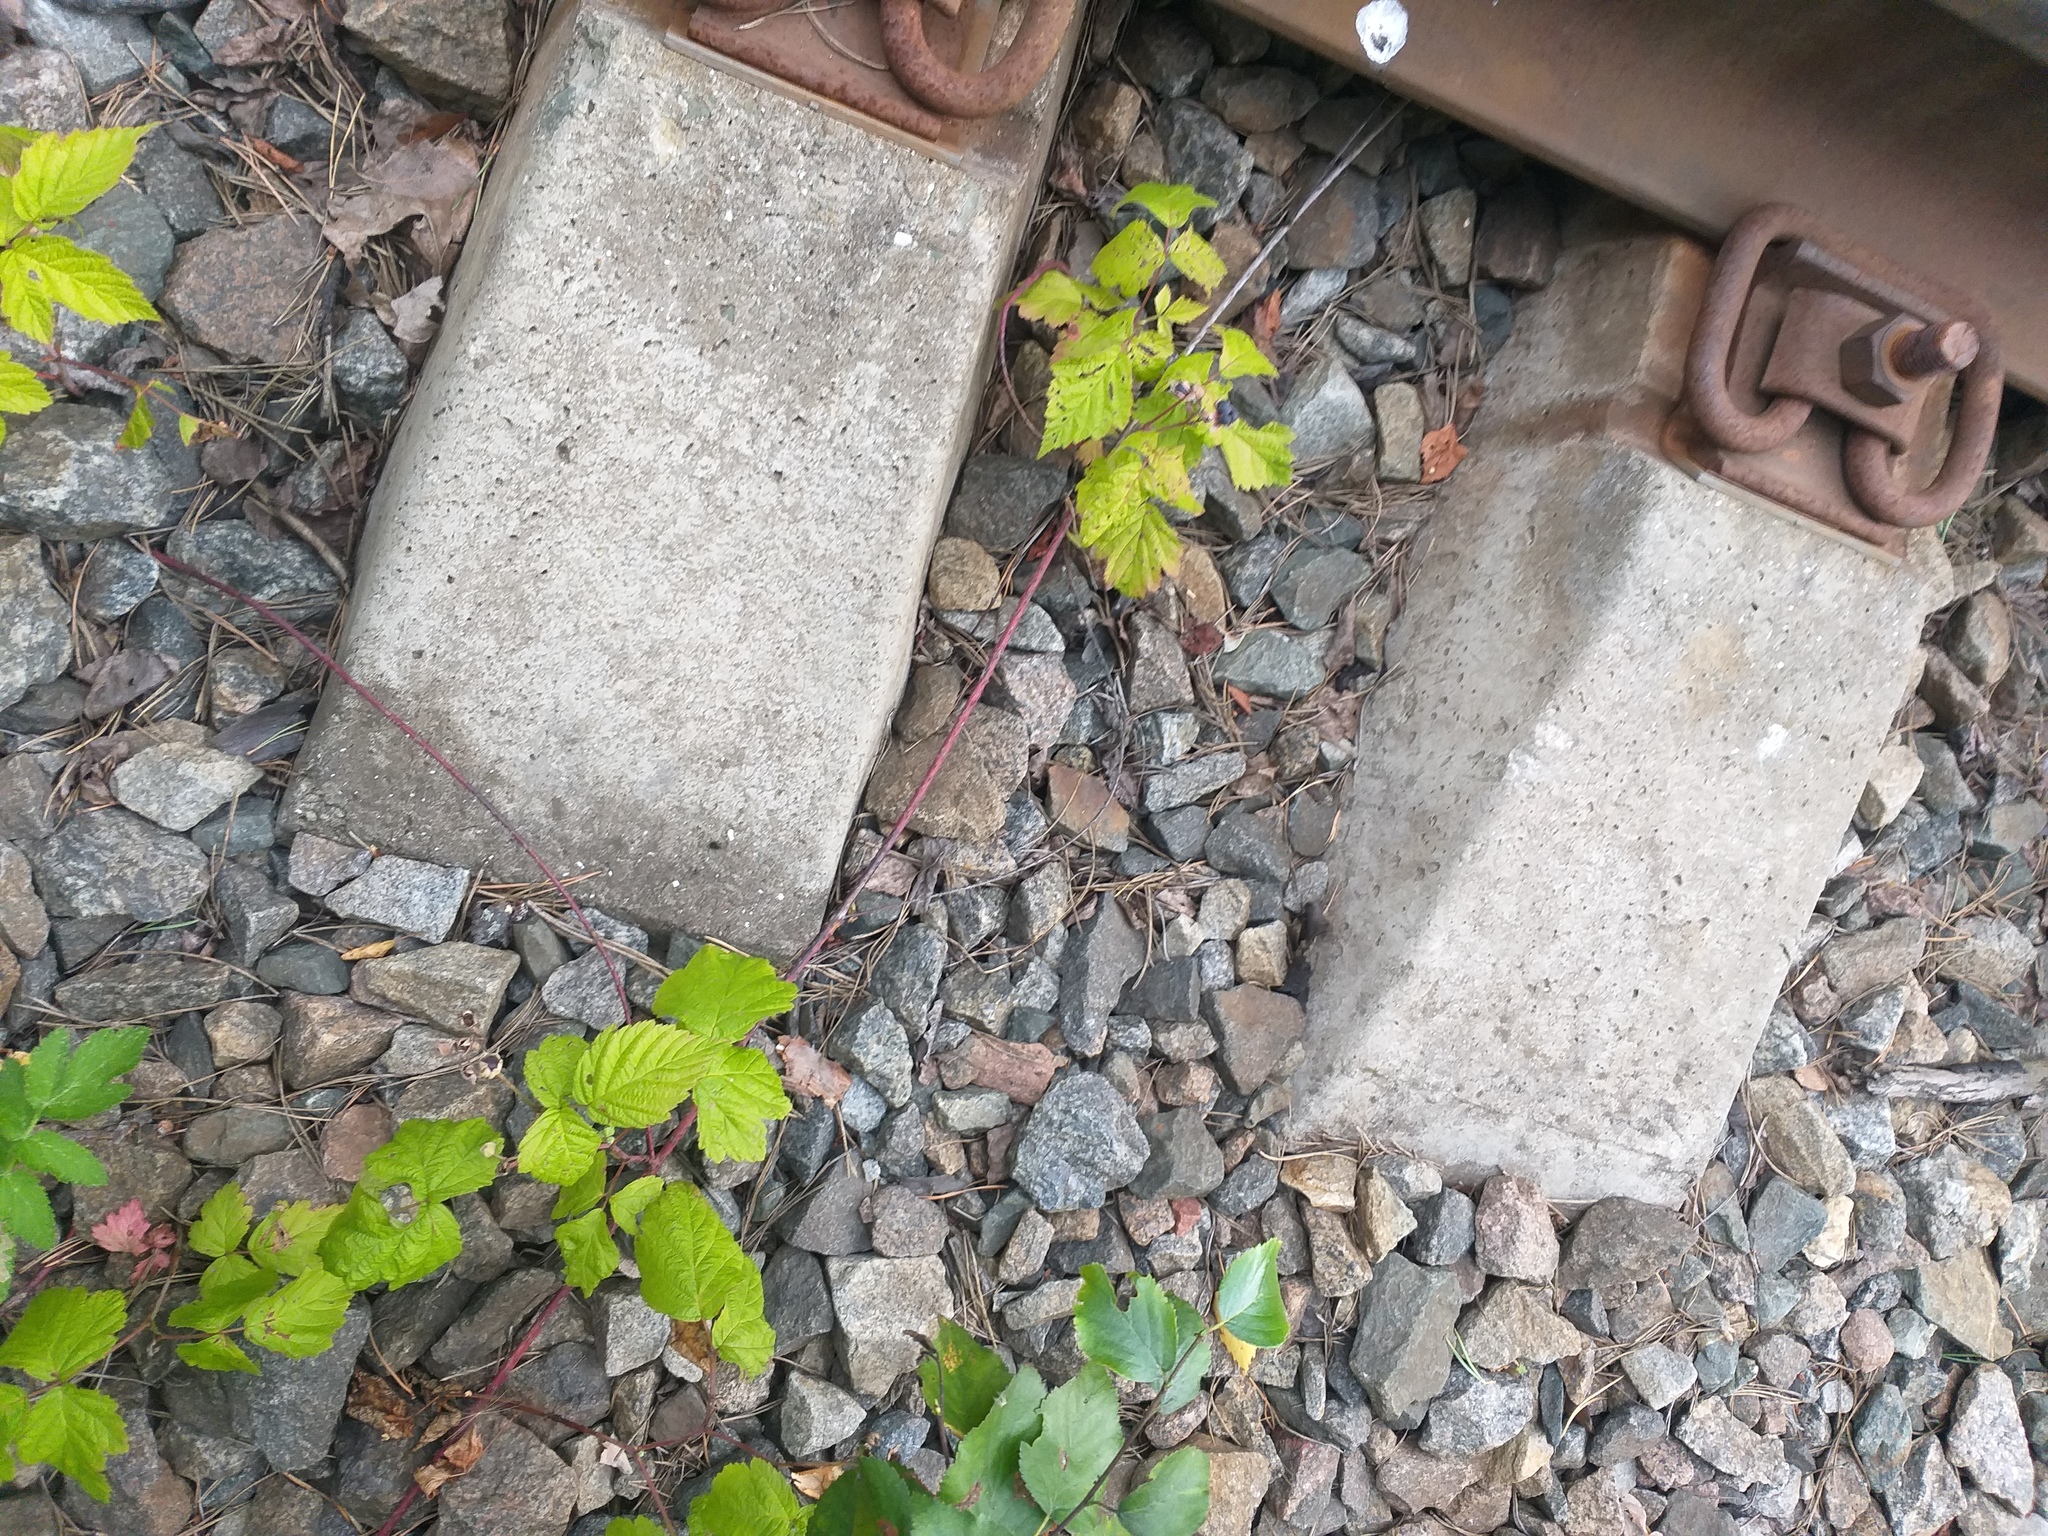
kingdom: Plantae
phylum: Tracheophyta
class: Magnoliopsida
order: Rosales
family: Rosaceae
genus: Rubus
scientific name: Rubus caesius
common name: Dewberry
